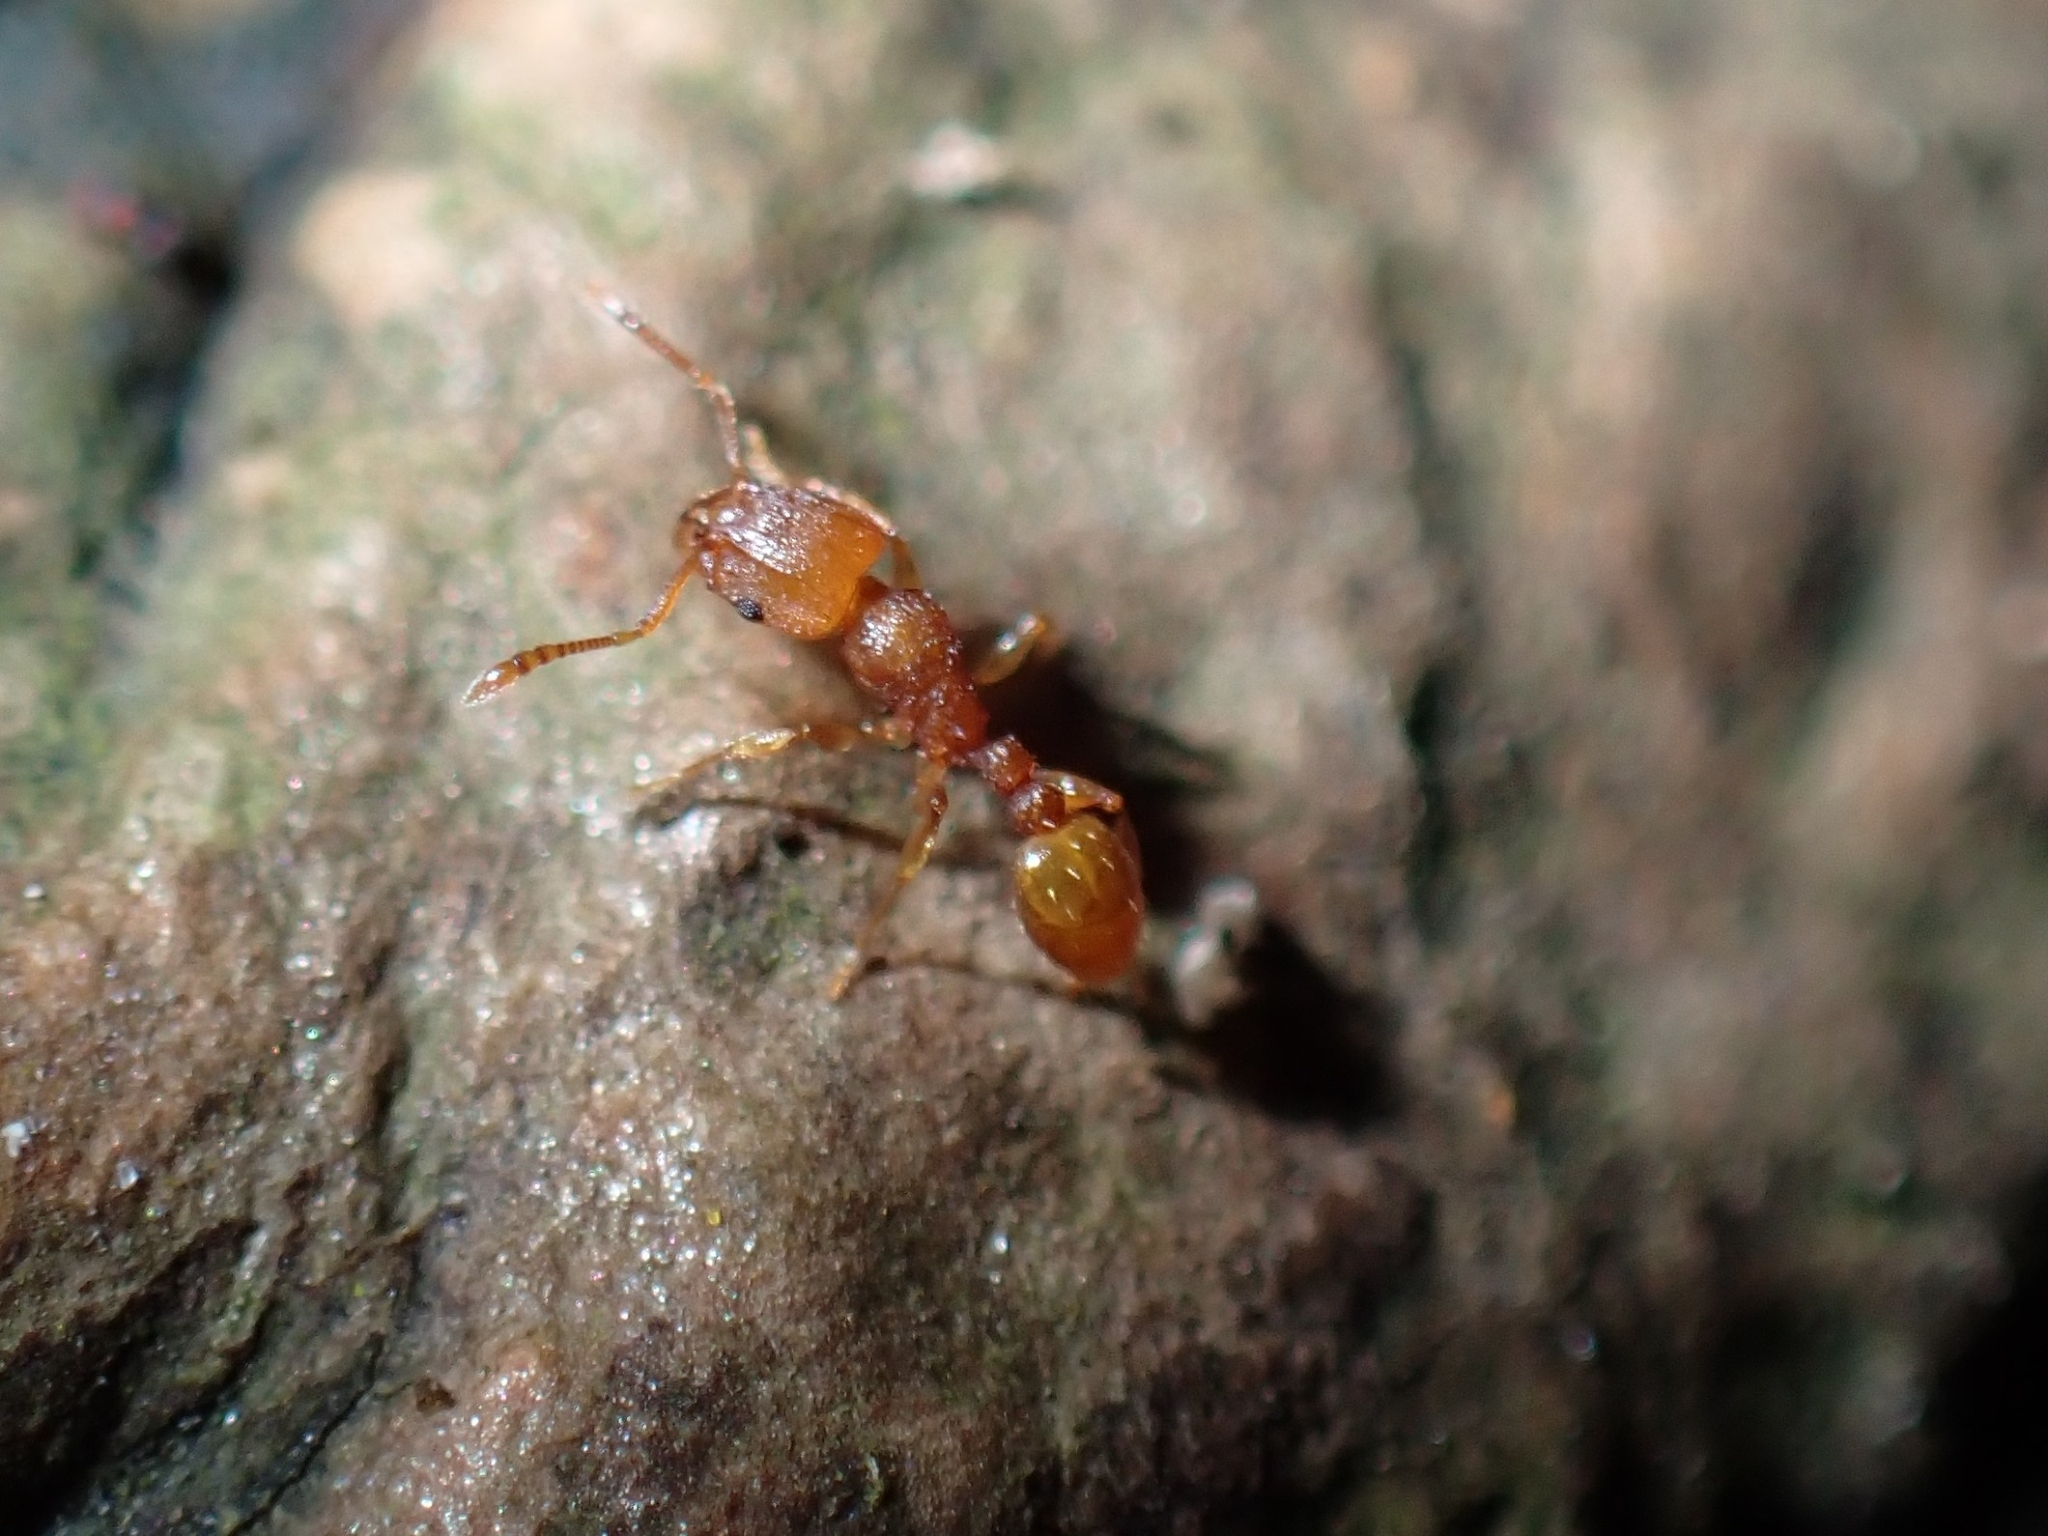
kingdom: Animalia
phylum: Arthropoda
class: Insecta
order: Hymenoptera
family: Formicidae
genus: Tetramorium
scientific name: Tetramorium simillimum
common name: Ant
